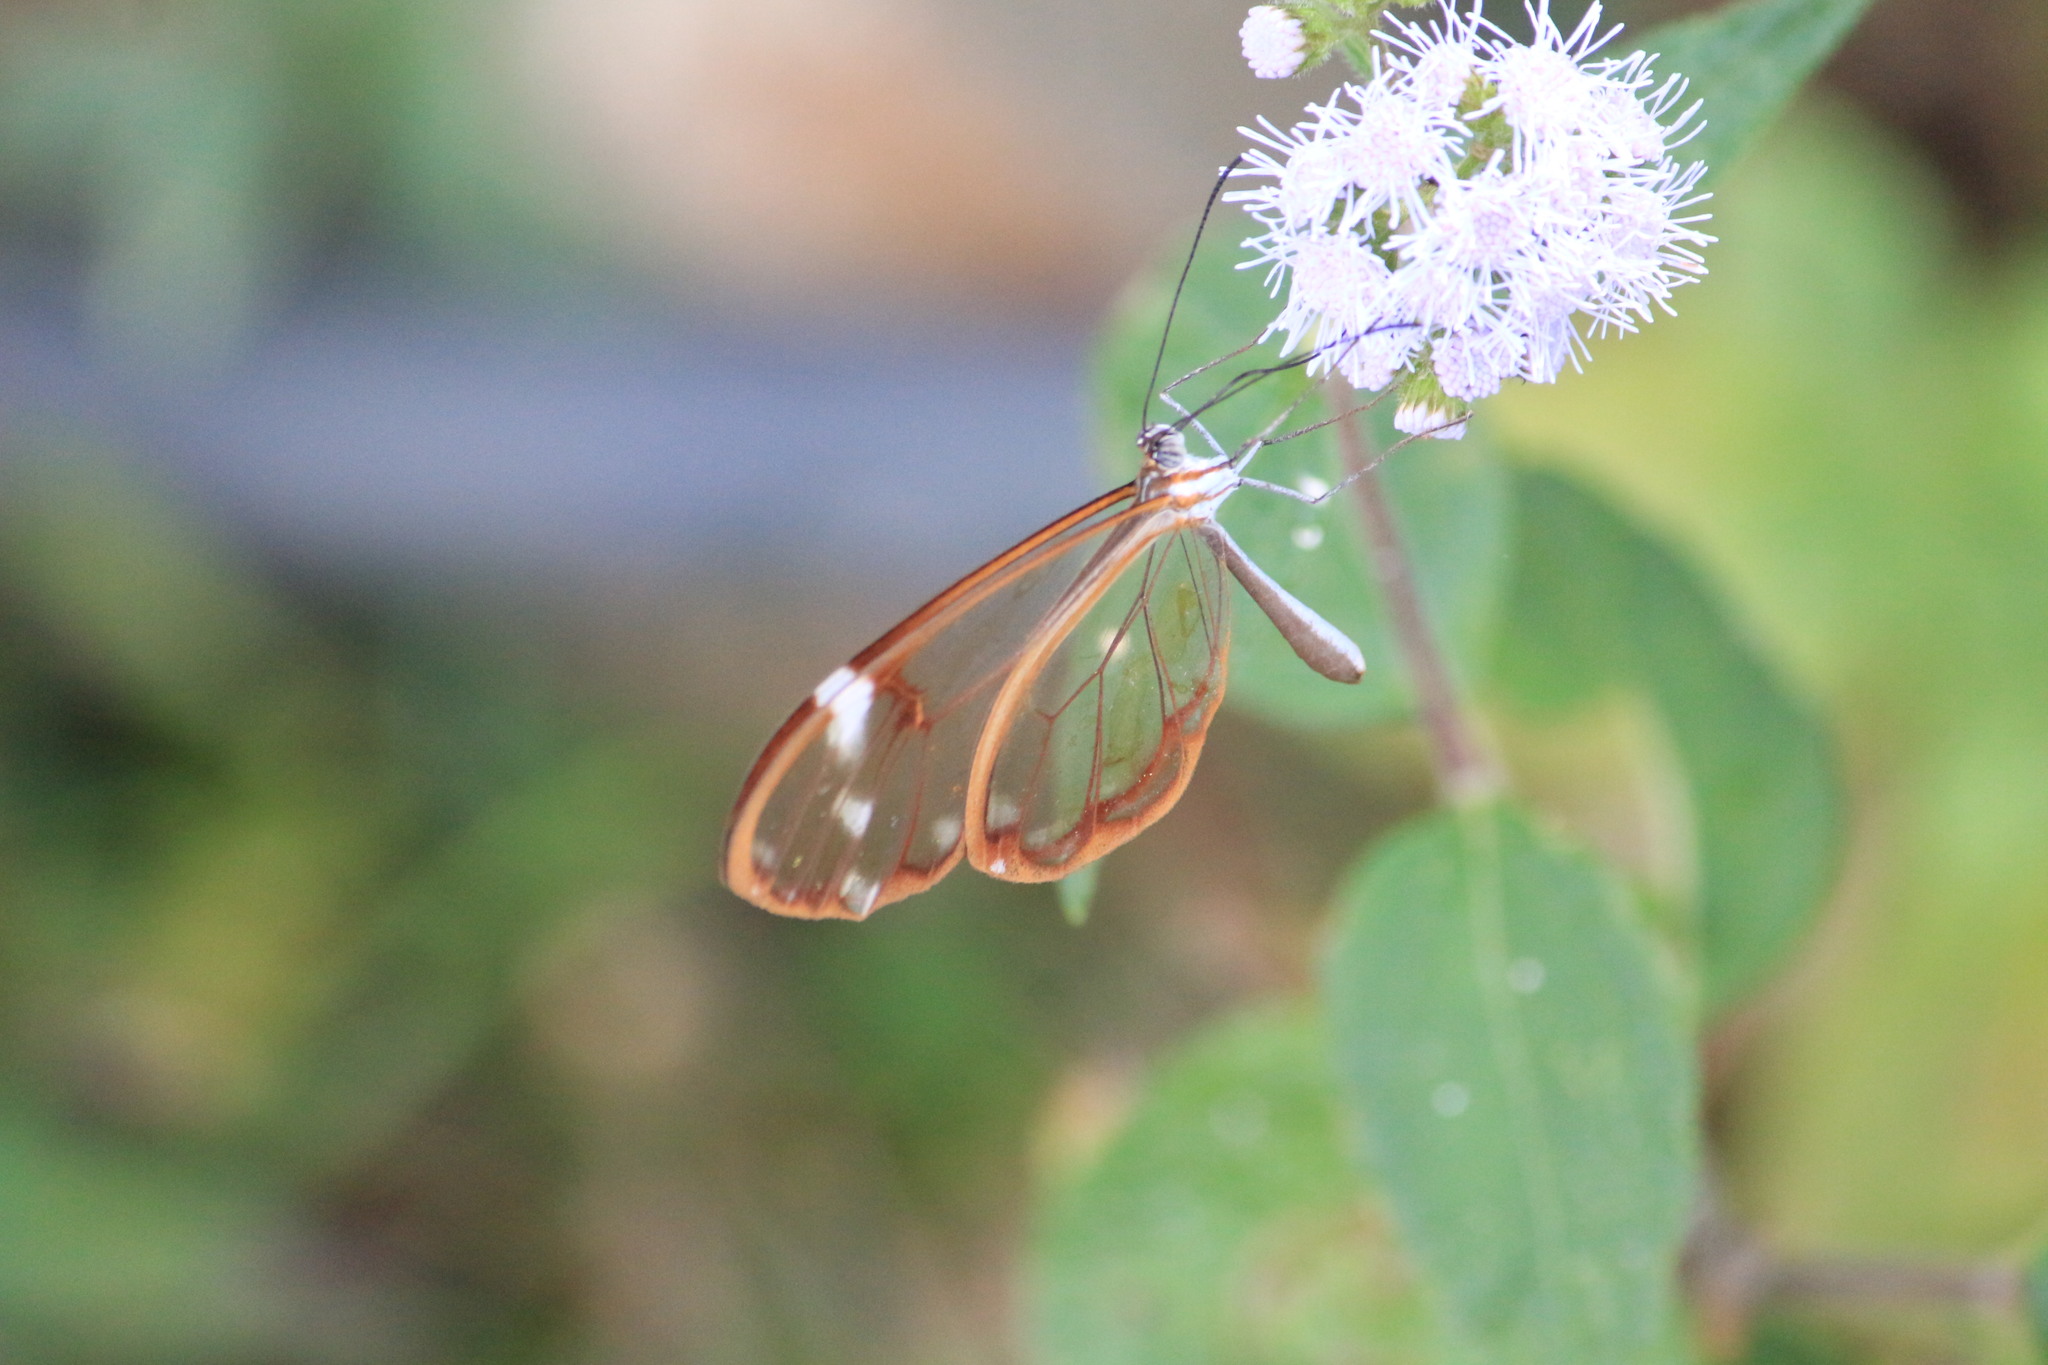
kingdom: Animalia
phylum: Arthropoda
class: Insecta
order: Lepidoptera
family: Nymphalidae
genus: Greta
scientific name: Greta annette
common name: White-spotted clearwing
